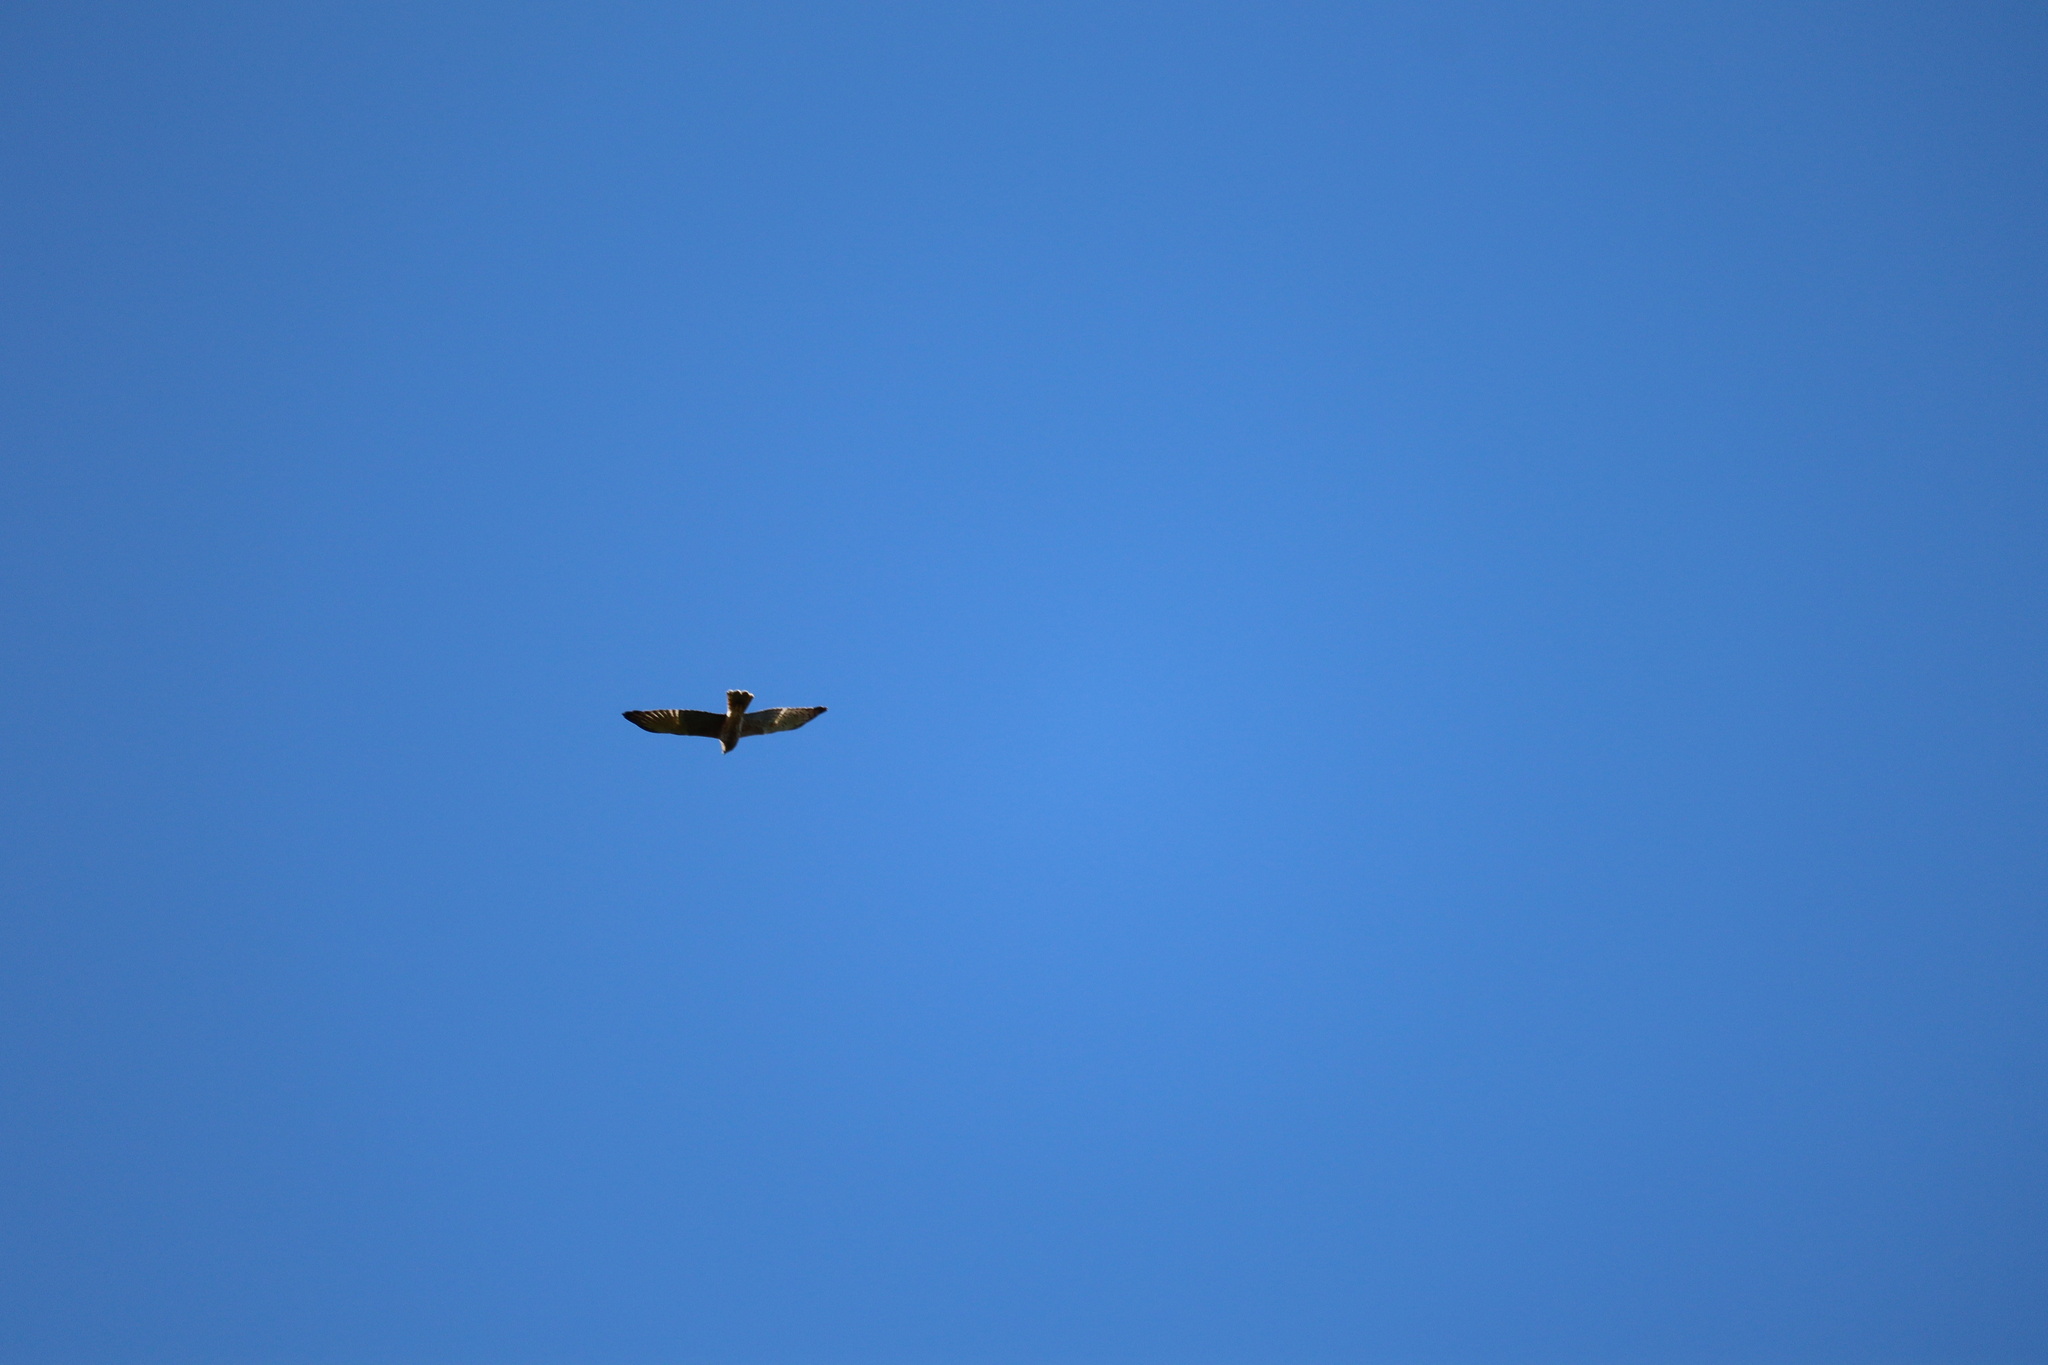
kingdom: Animalia
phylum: Chordata
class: Aves
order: Accipitriformes
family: Accipitridae
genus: Circus
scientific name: Circus approximans
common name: Swamp harrier
